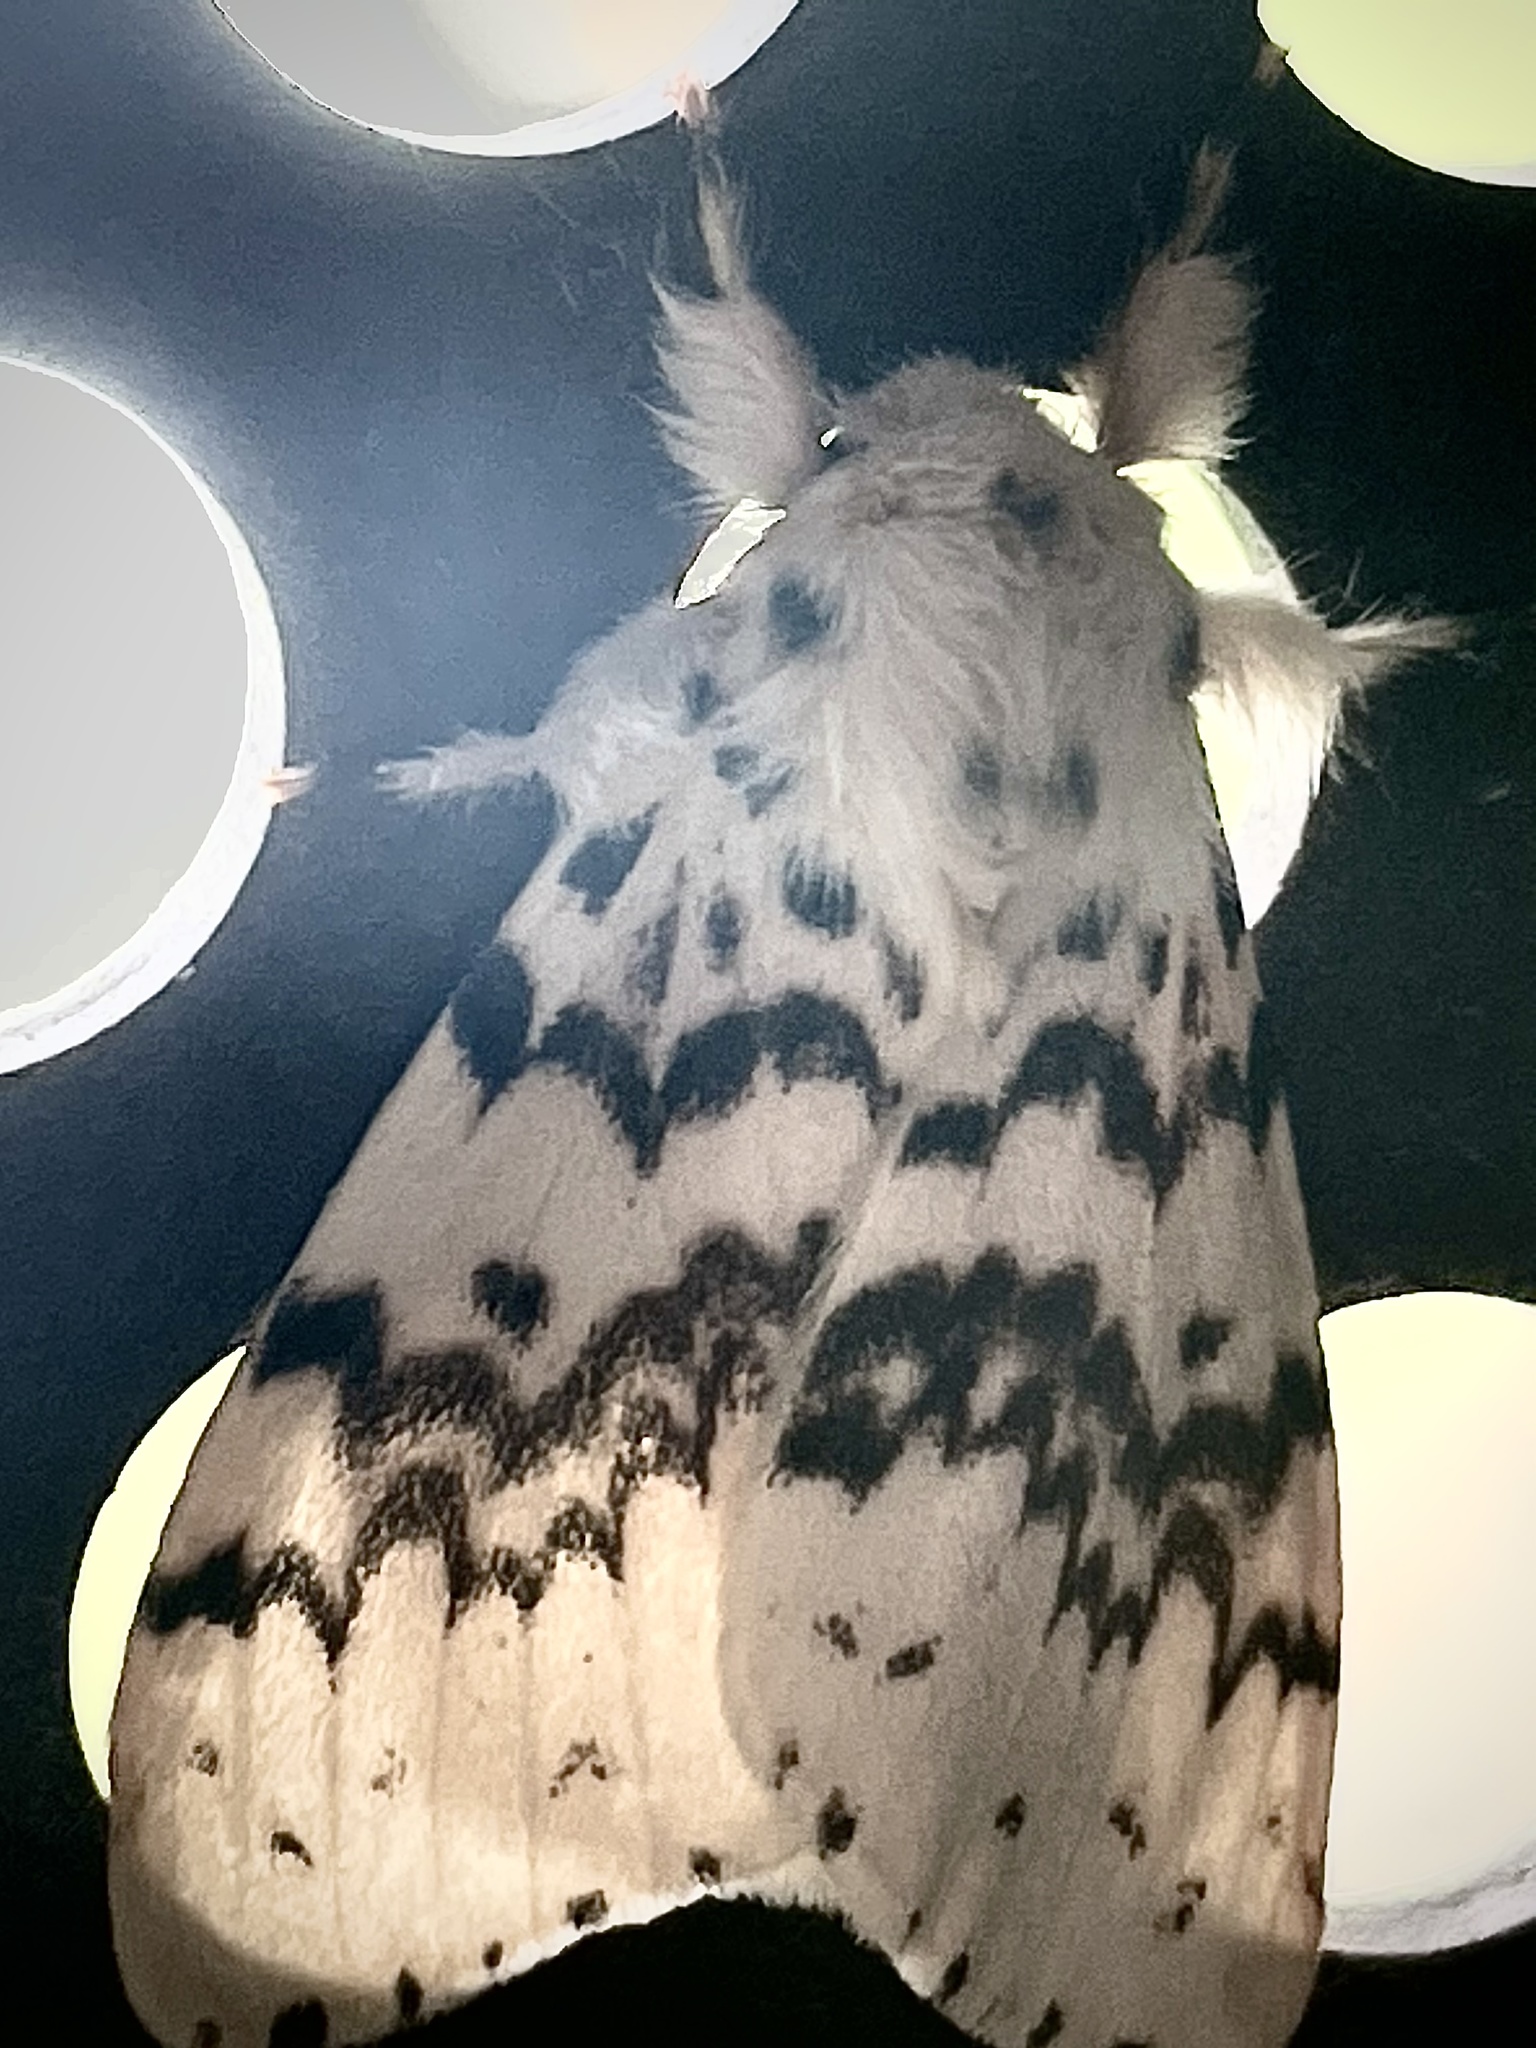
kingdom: Animalia
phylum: Arthropoda
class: Insecta
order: Lepidoptera
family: Erebidae
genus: Lymantria
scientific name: Lymantria antennata
